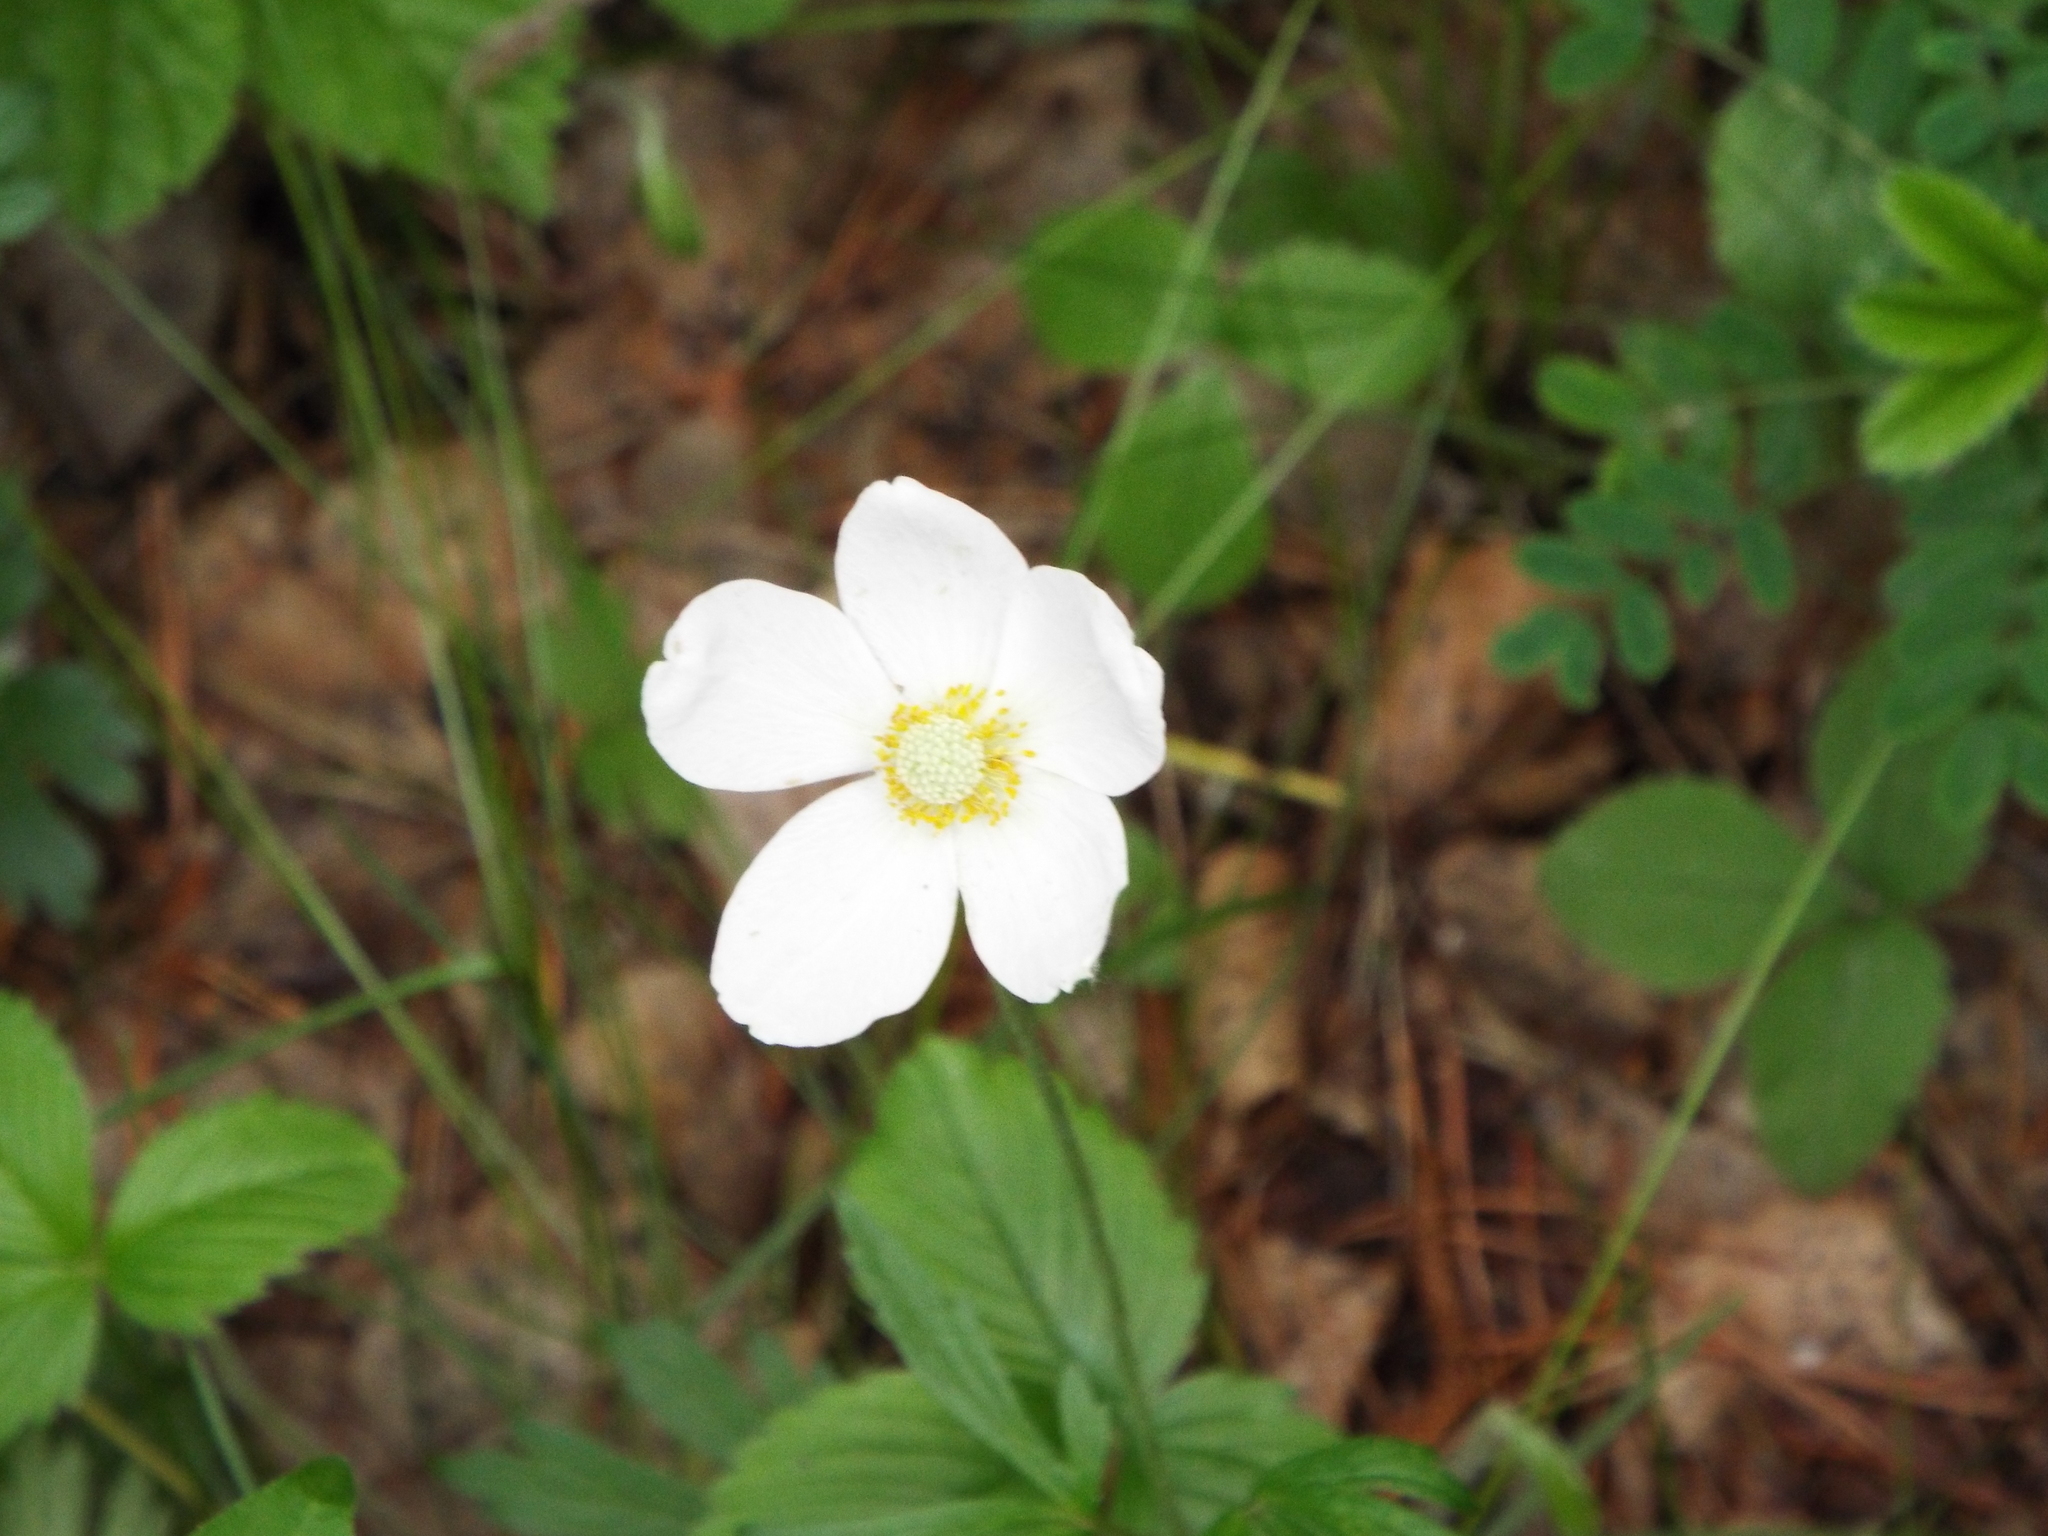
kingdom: Plantae
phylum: Tracheophyta
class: Magnoliopsida
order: Ranunculales
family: Ranunculaceae
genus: Anemone
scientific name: Anemone sylvestris
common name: Snowdrop anemone
